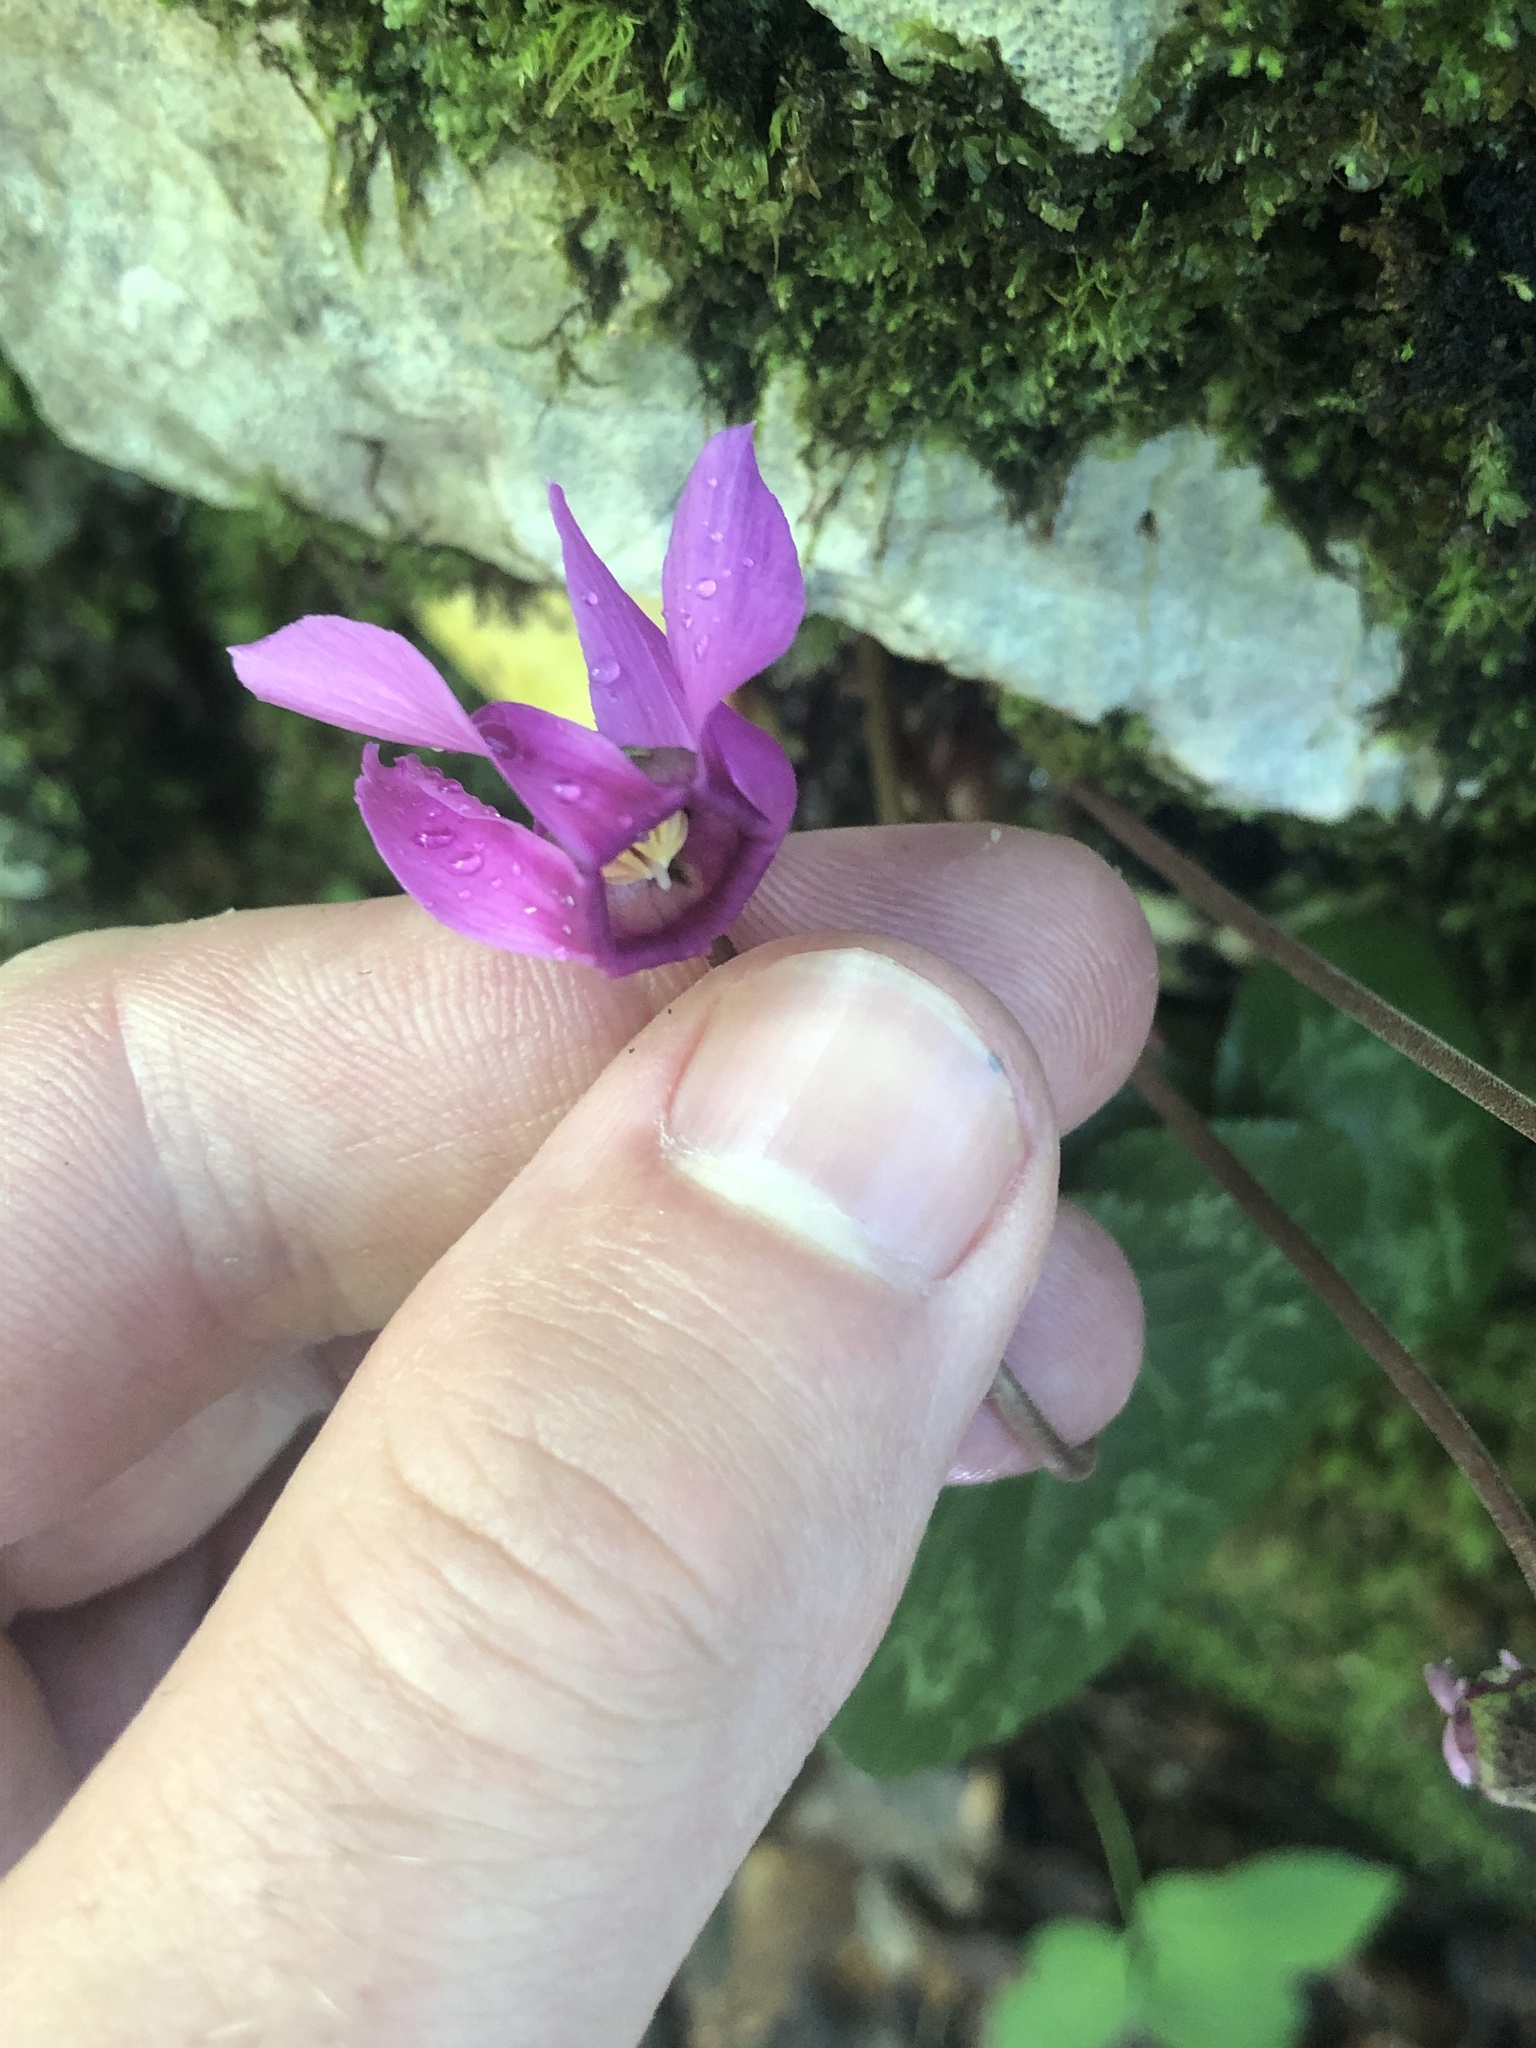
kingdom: Plantae
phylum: Tracheophyta
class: Magnoliopsida
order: Ericales
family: Primulaceae
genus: Cyclamen
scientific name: Cyclamen purpurascens
